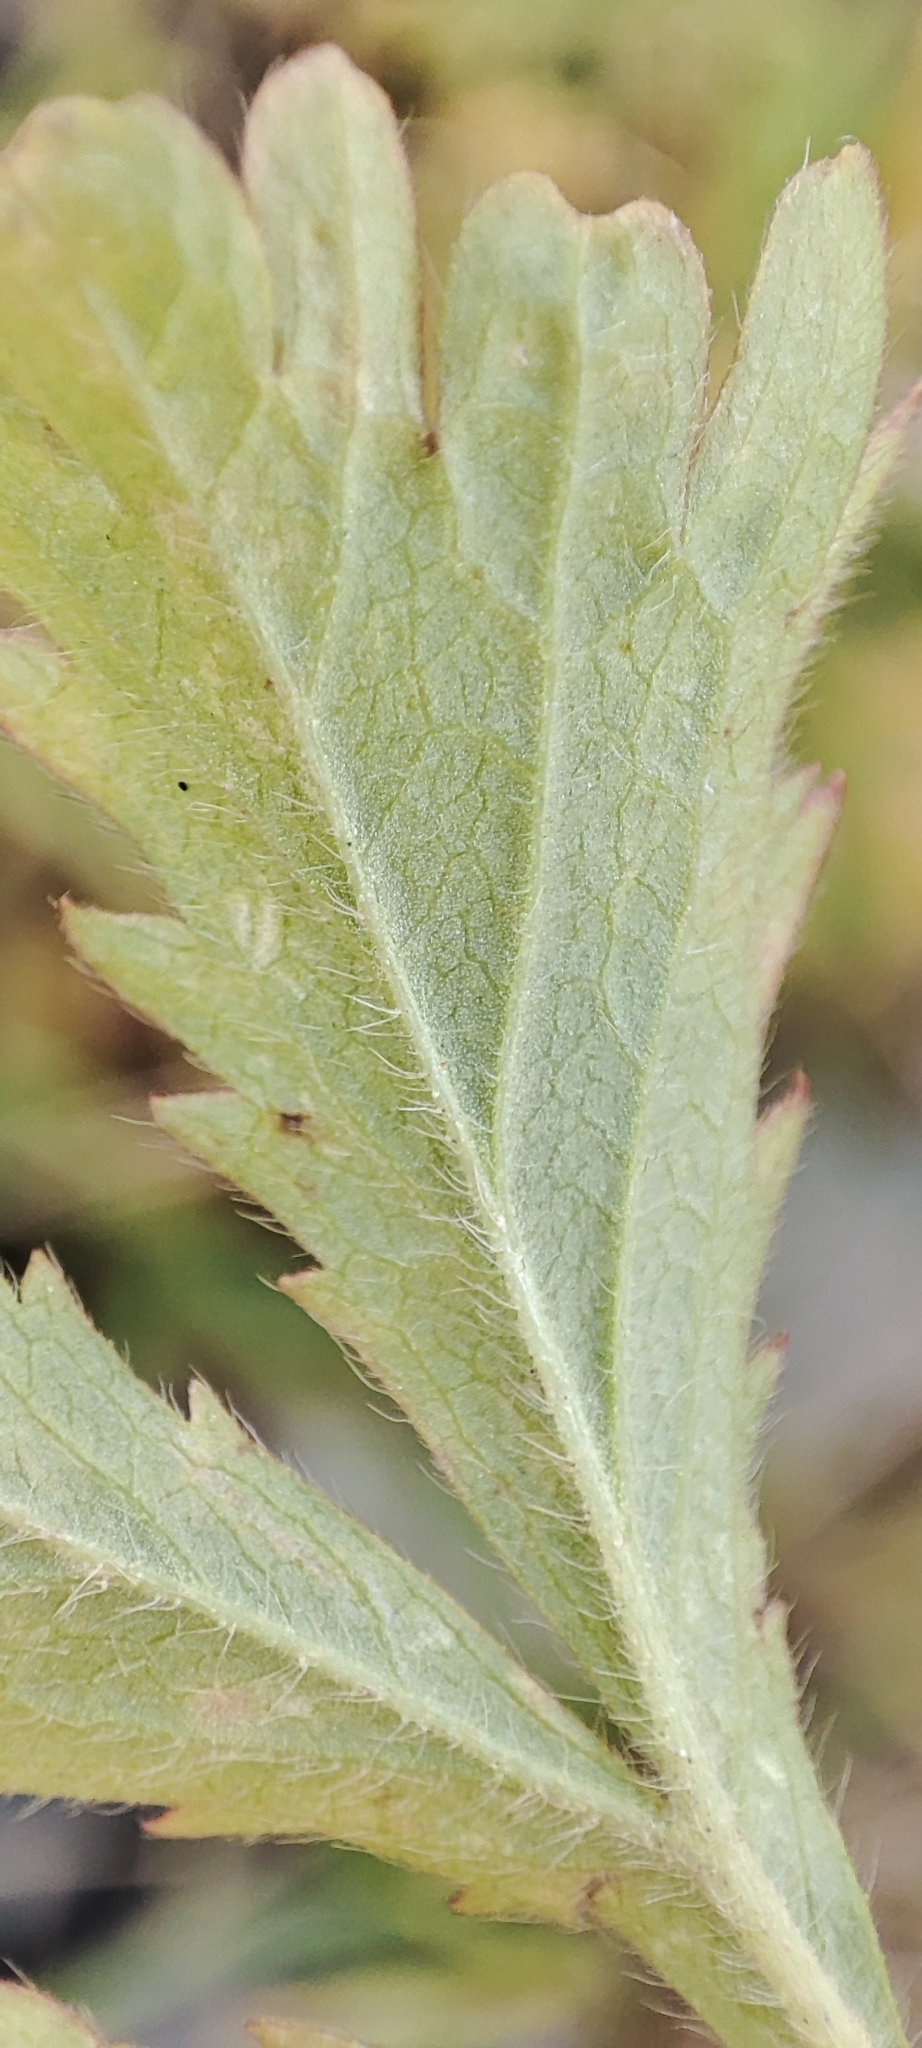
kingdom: Plantae
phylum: Tracheophyta
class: Magnoliopsida
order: Rosales
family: Rosaceae
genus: Potentilla
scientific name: Potentilla norvegica
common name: Ternate-leaved cinquefoil
